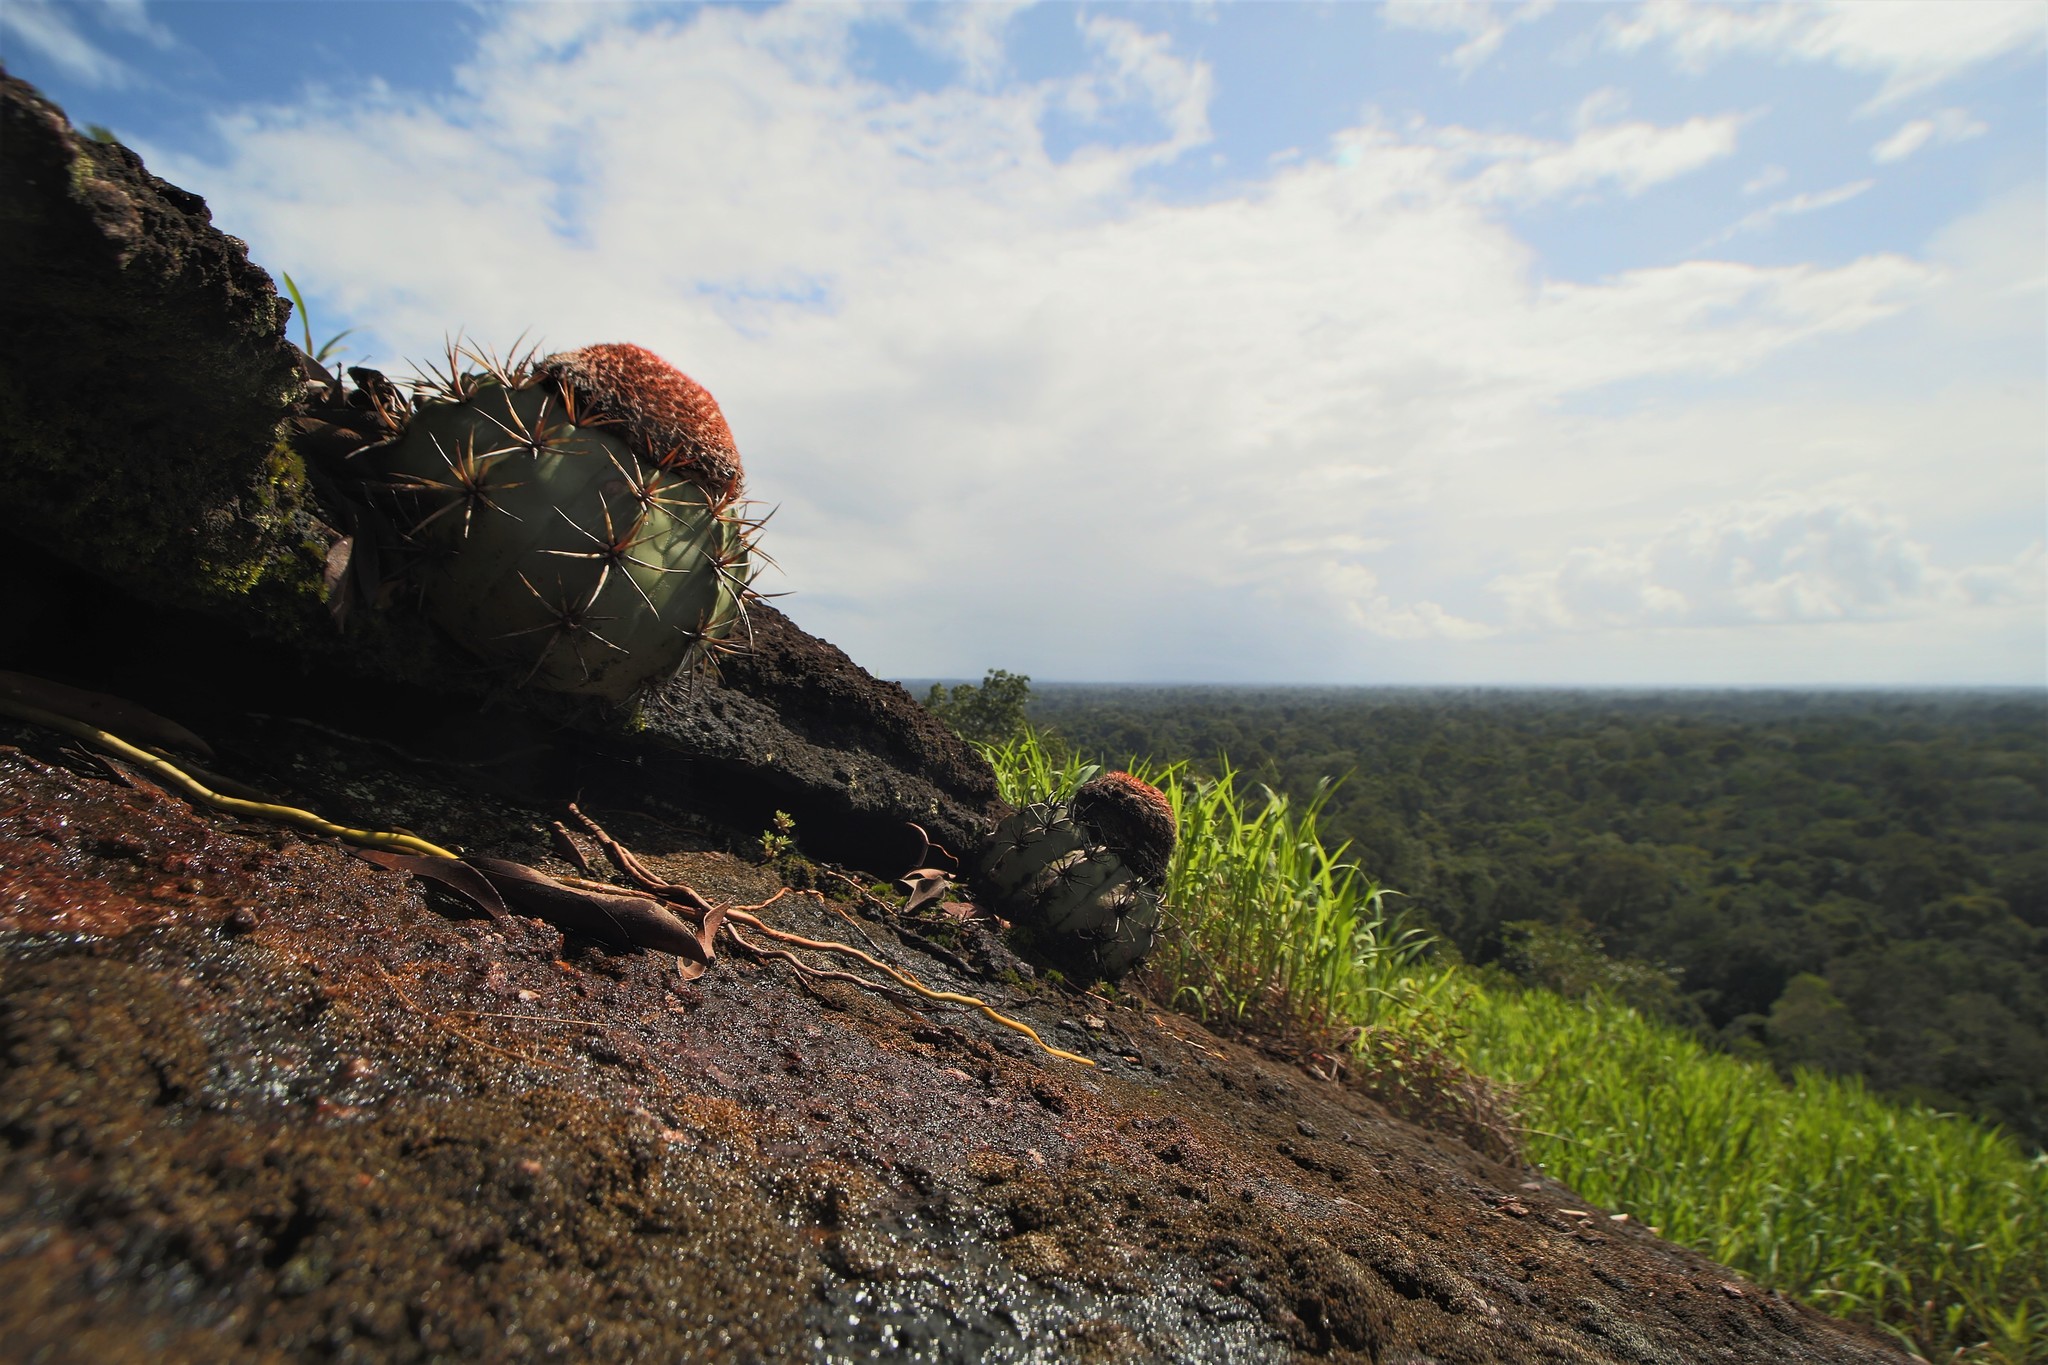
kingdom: Plantae
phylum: Tracheophyta
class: Magnoliopsida
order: Caryophyllales
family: Cactaceae
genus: Melocactus
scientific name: Melocactus neryi
